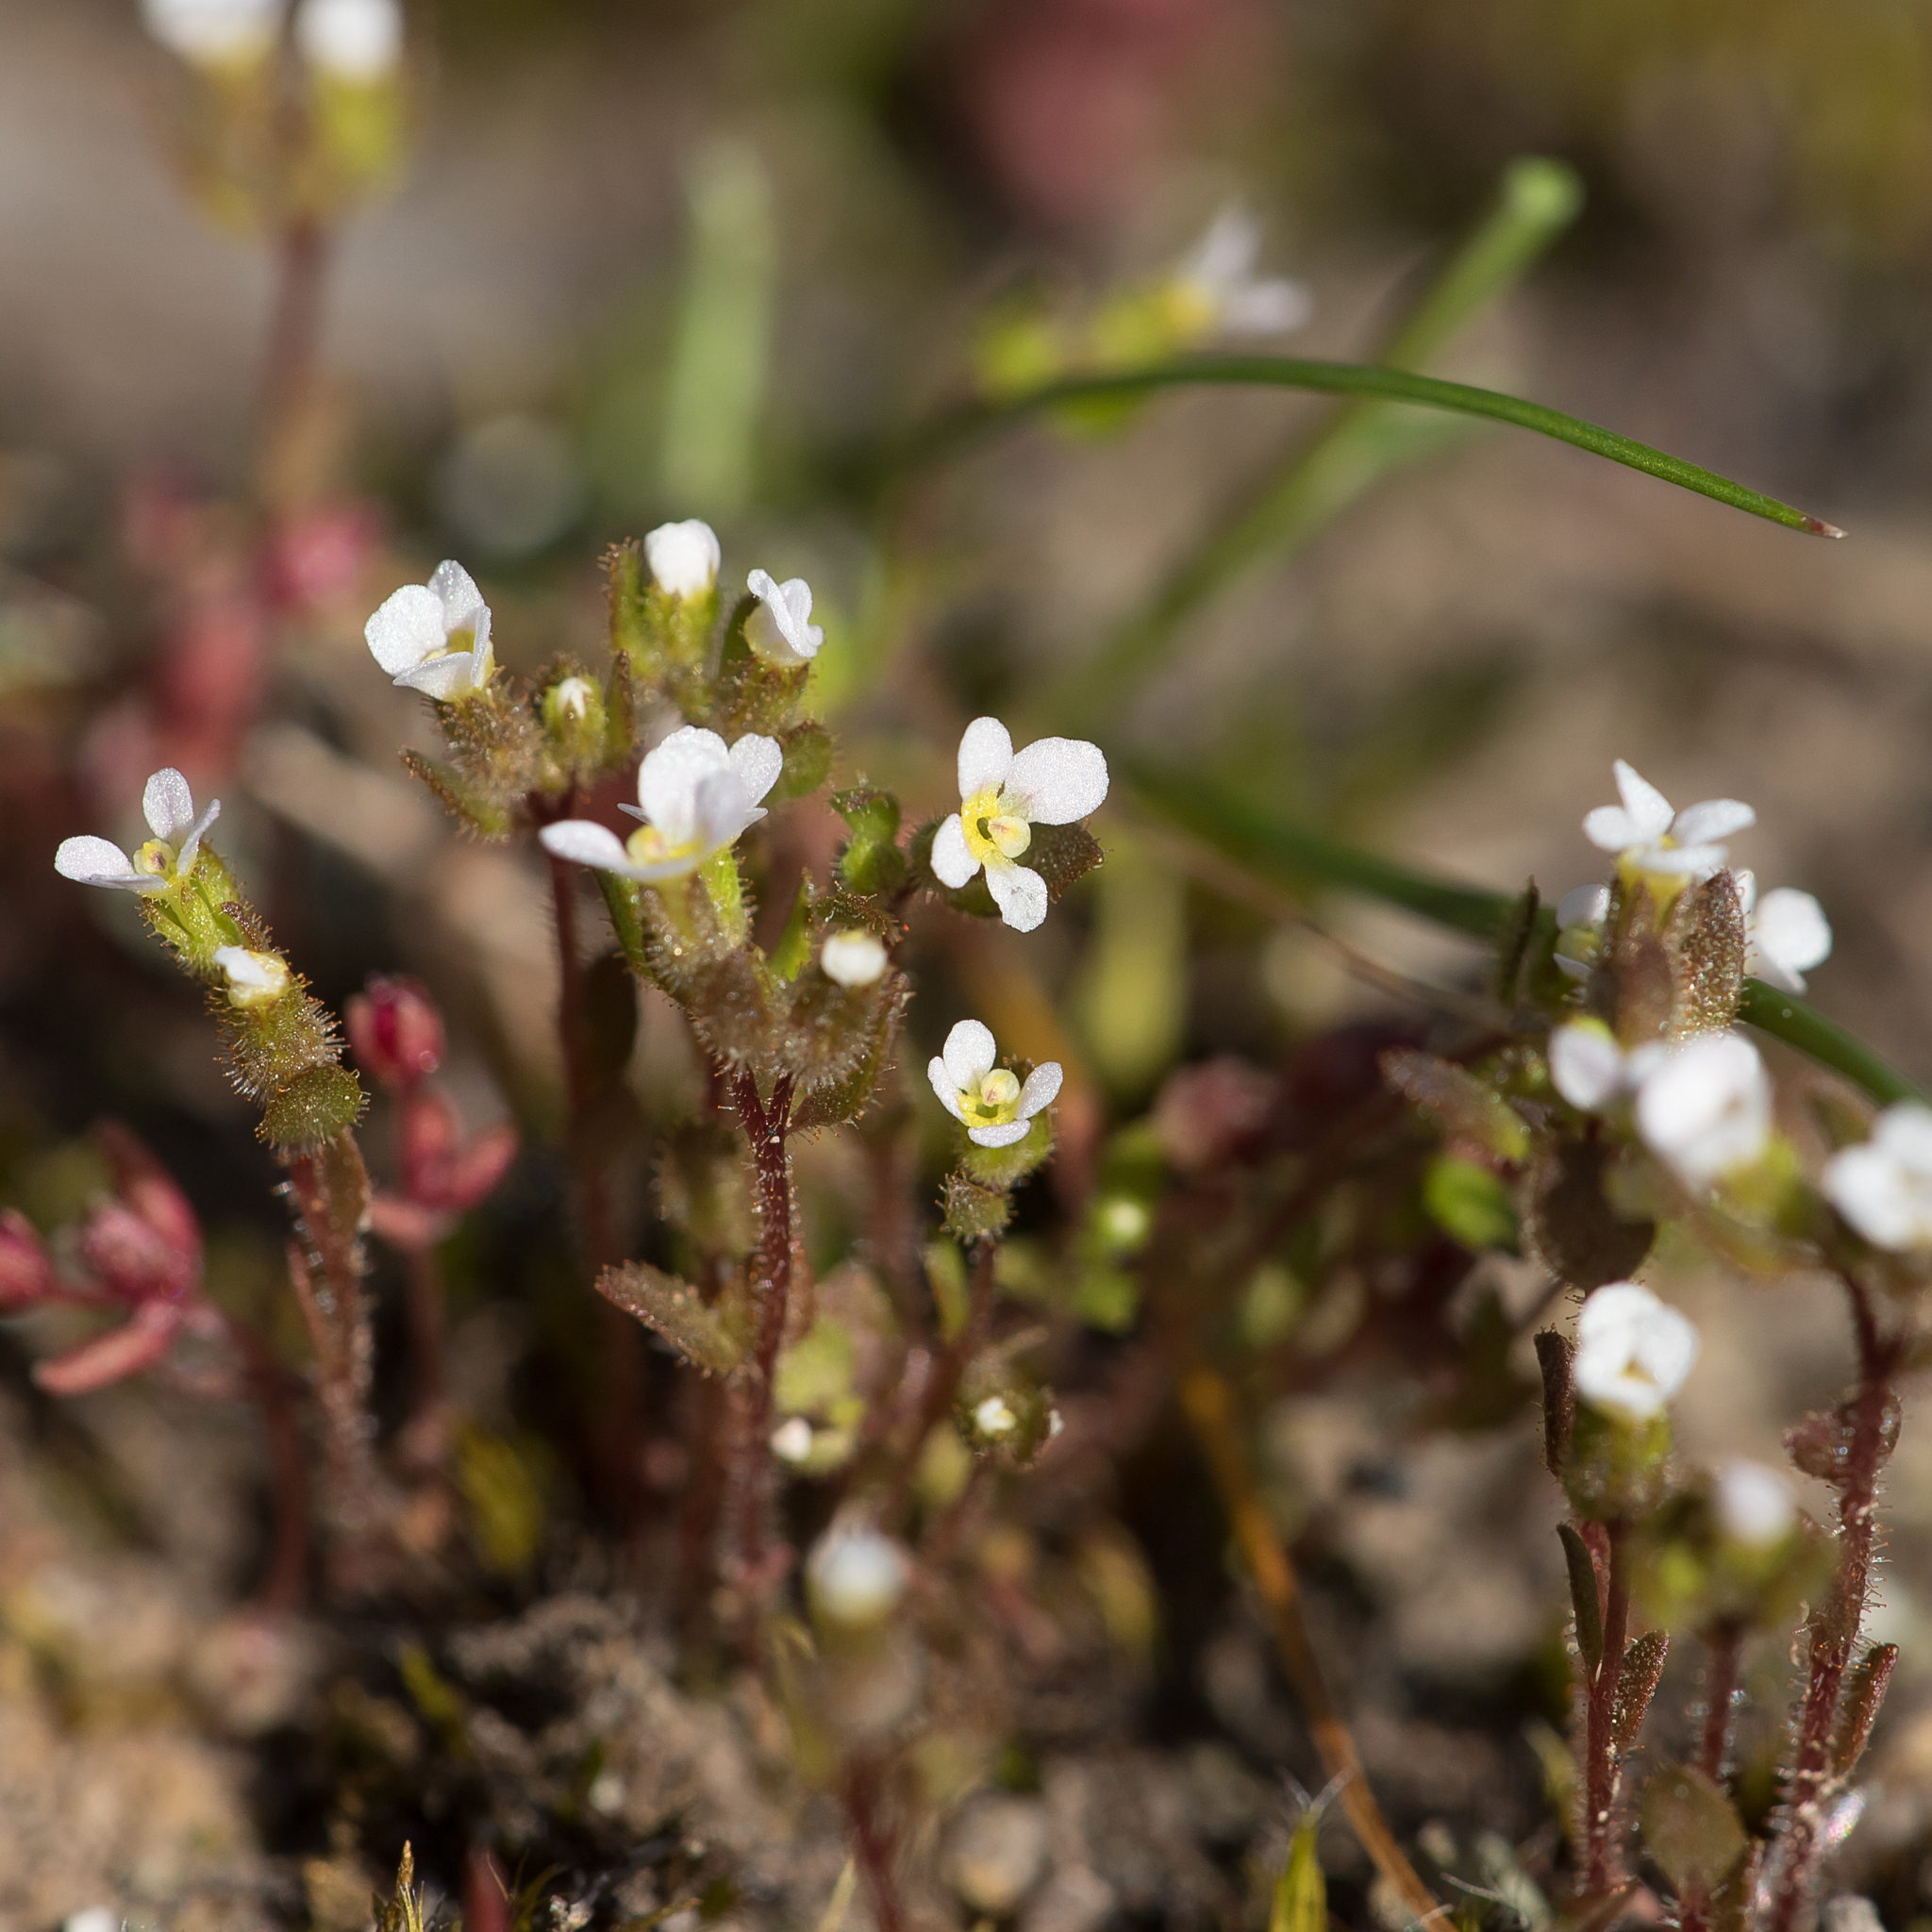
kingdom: Plantae
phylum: Tracheophyta
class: Magnoliopsida
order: Asterales
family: Stylidiaceae
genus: Levenhookia
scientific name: Levenhookia dubia
